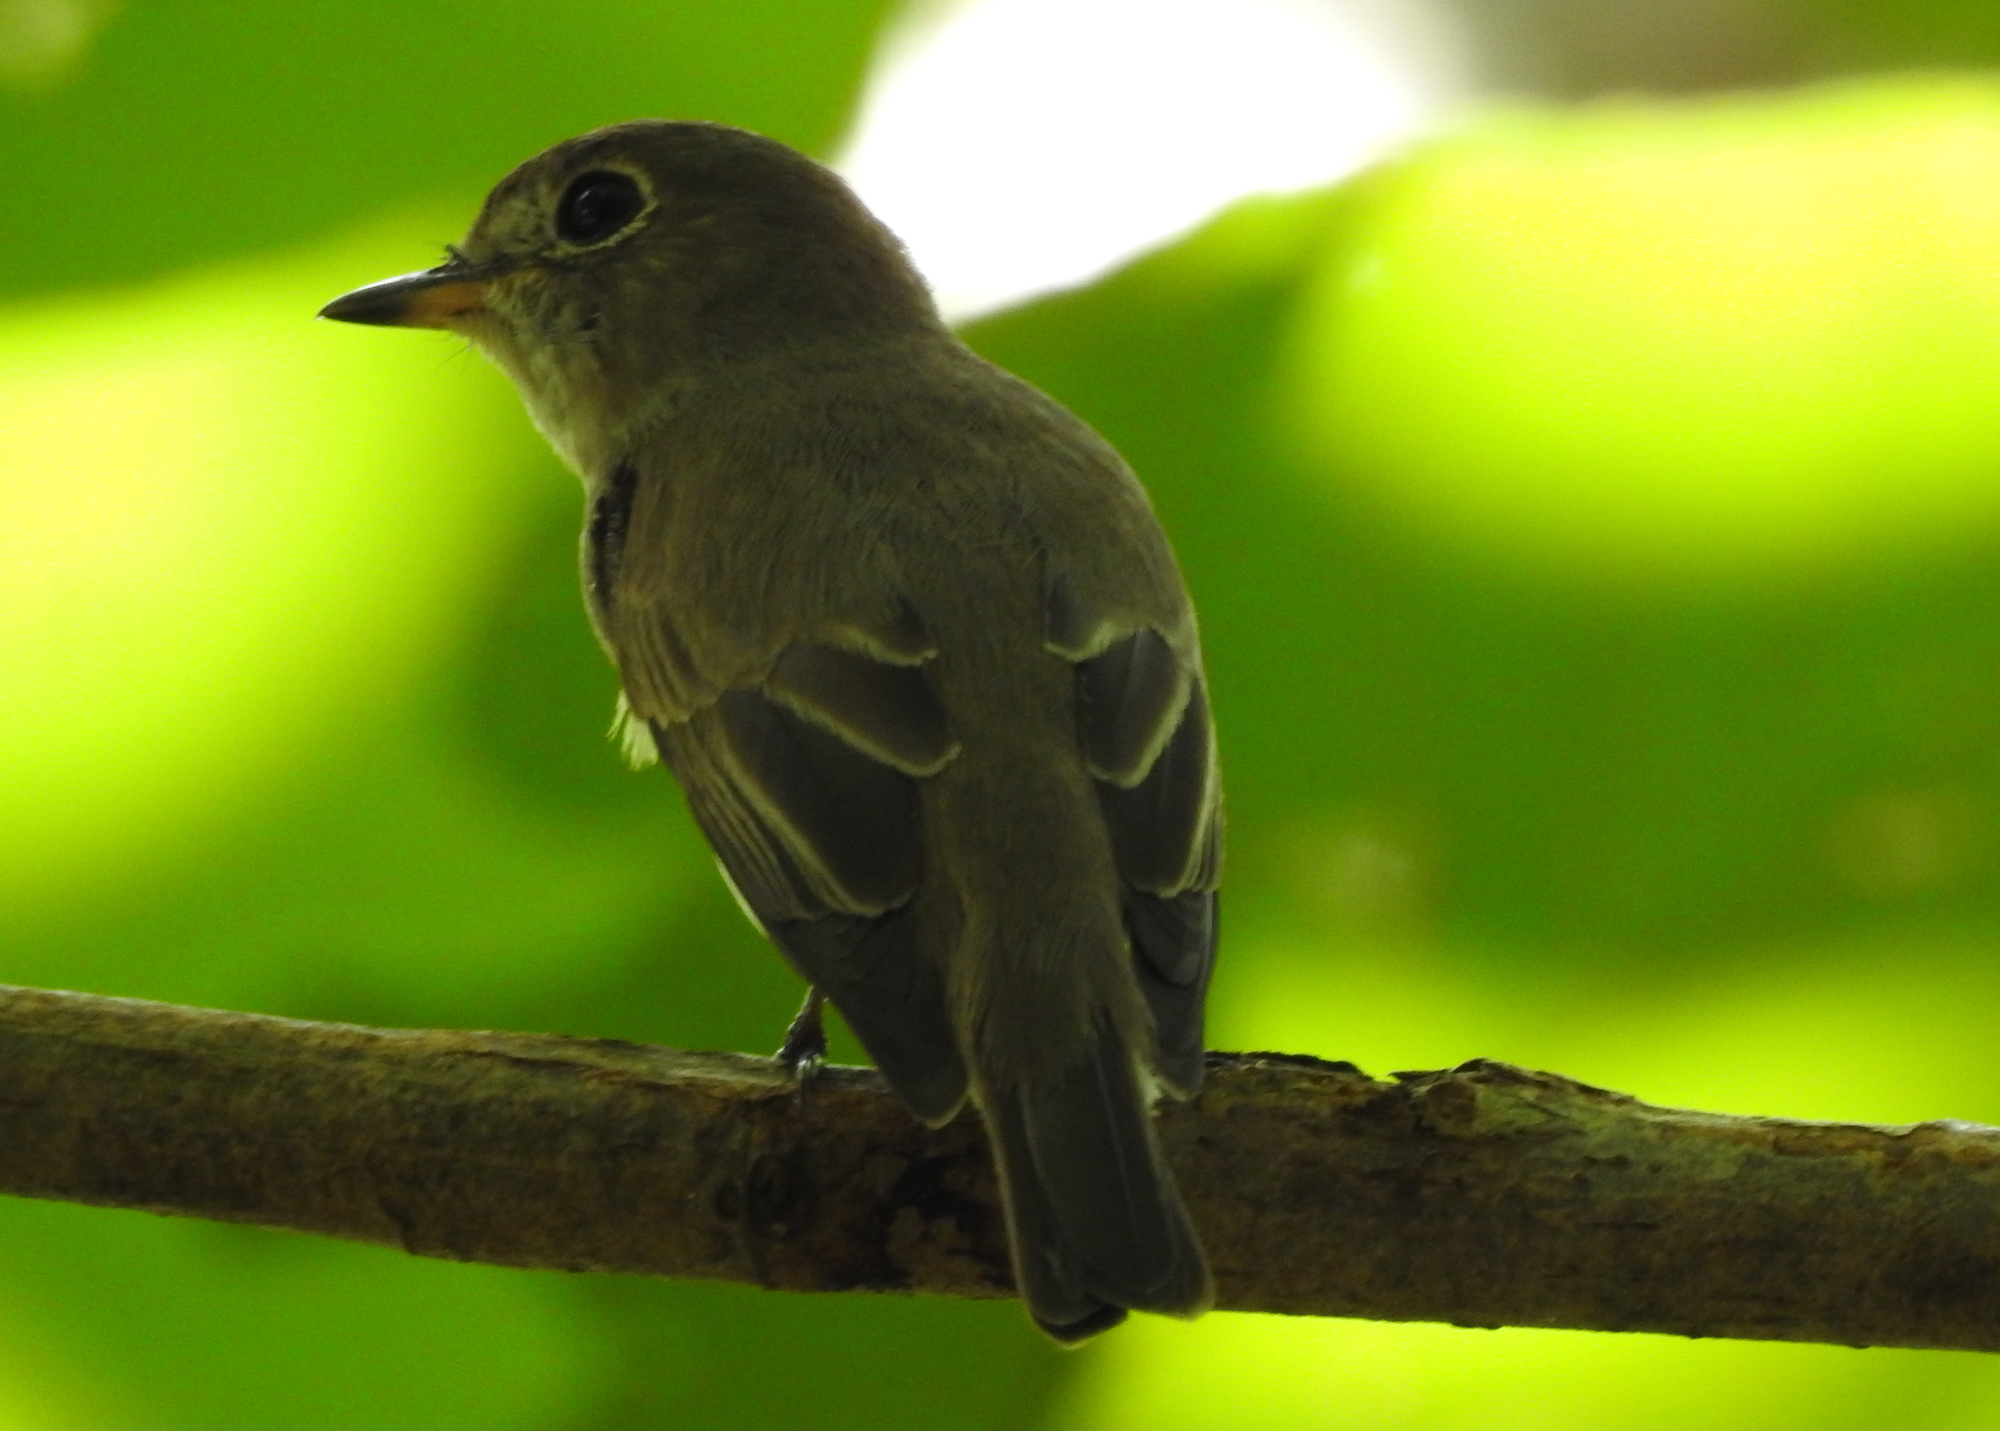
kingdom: Animalia
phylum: Chordata
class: Aves
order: Passeriformes
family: Muscicapidae
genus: Muscicapa
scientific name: Muscicapa latirostris
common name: Asian brown flycatcher
